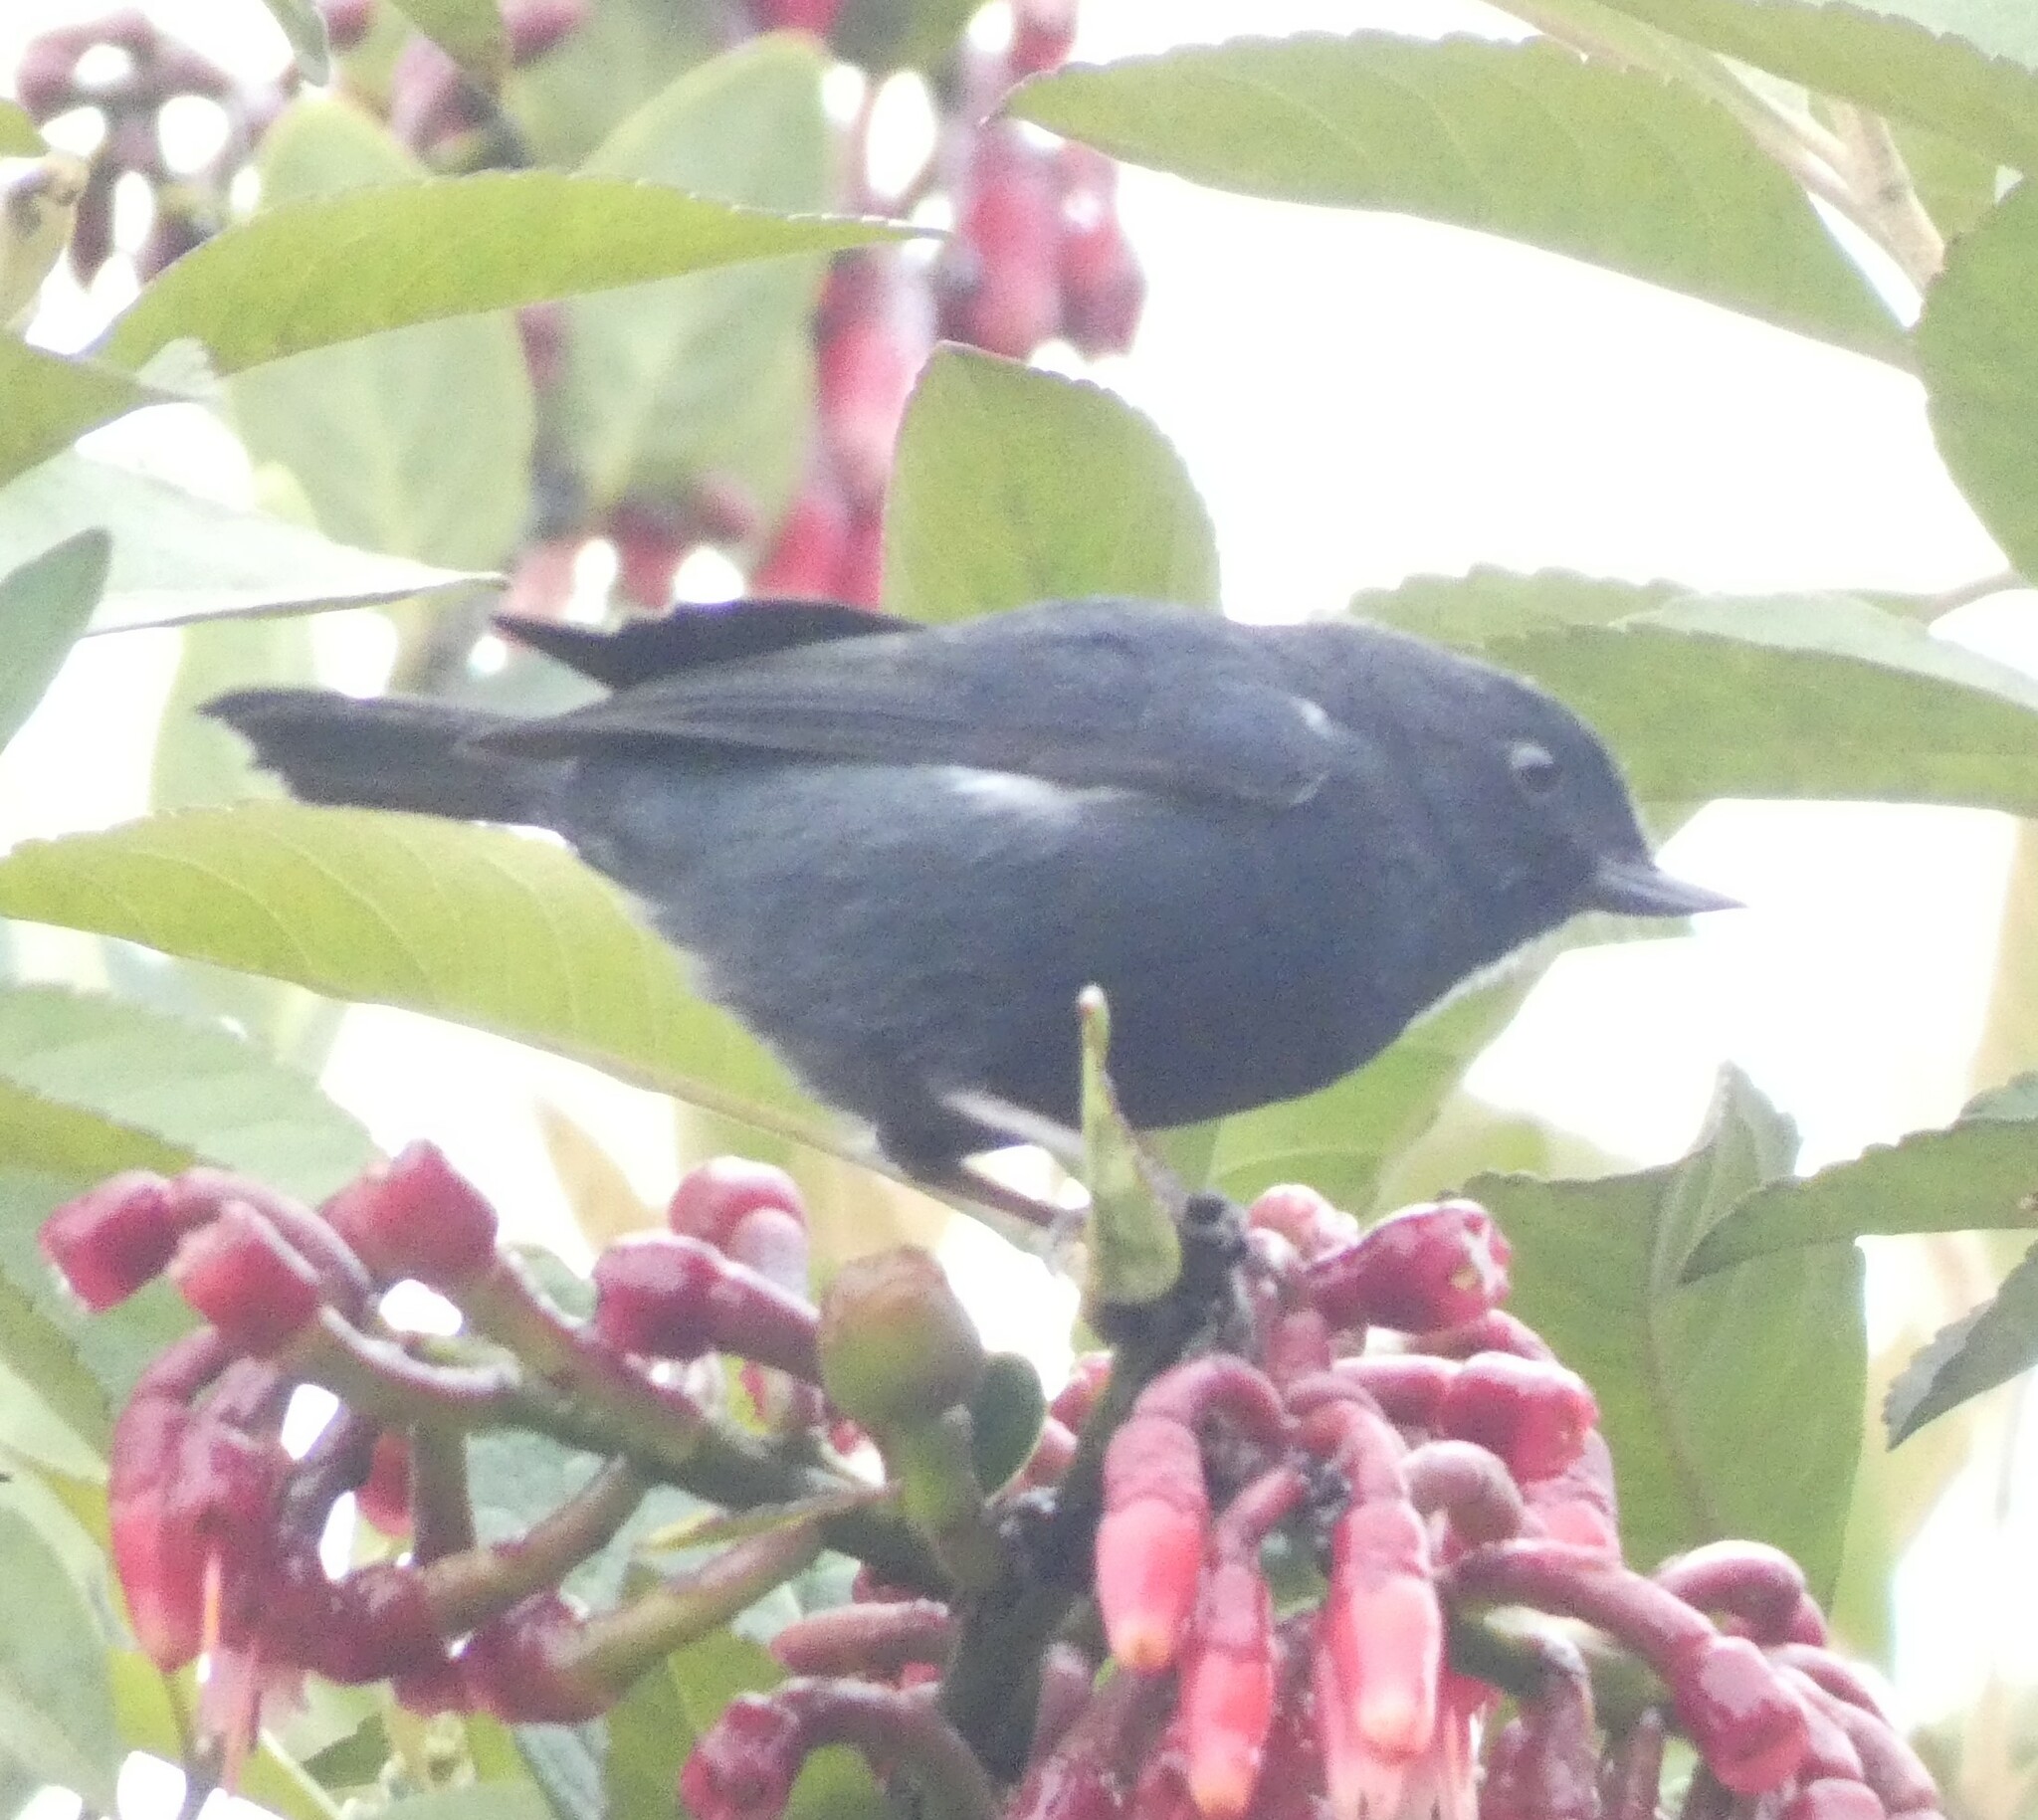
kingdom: Animalia
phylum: Chordata
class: Aves
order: Passeriformes
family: Thraupidae
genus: Diglossa
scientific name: Diglossa albilatera
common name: White-sided flowerpiercer
